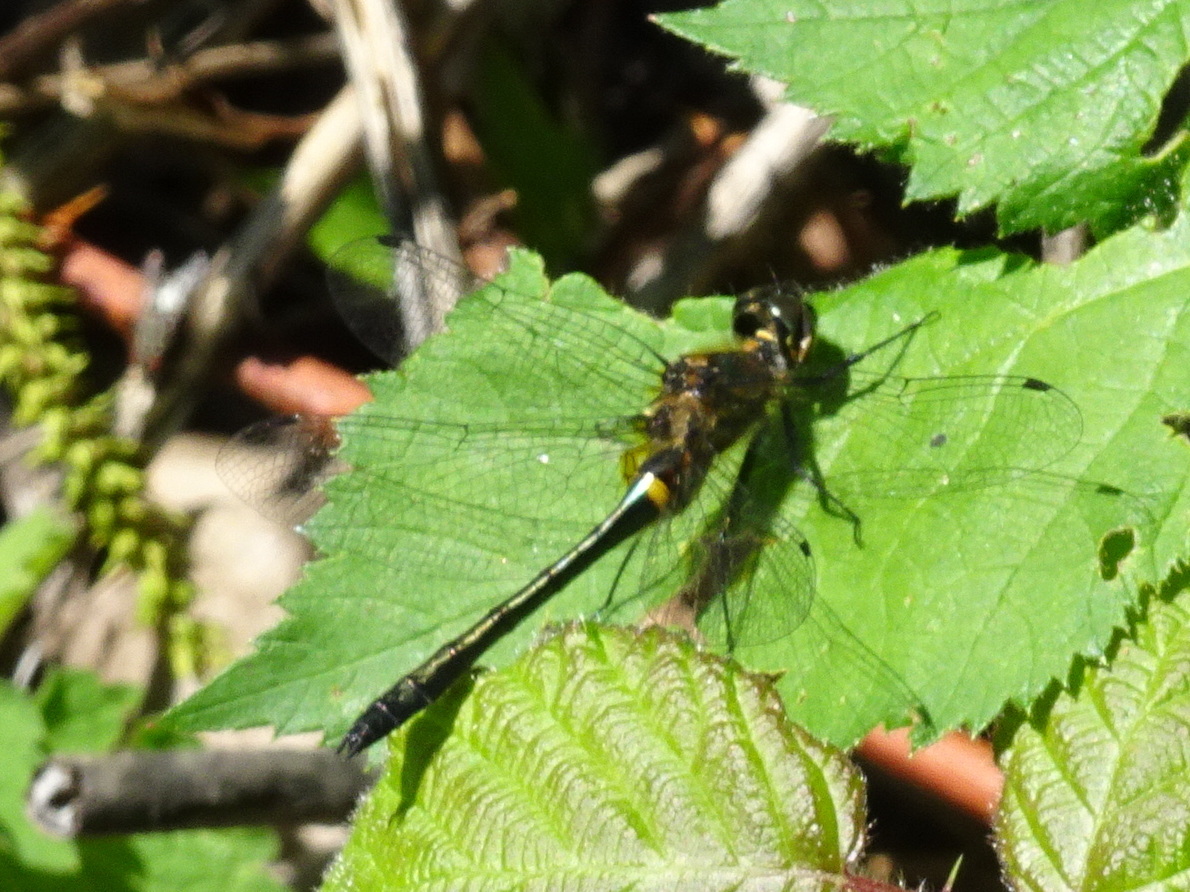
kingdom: Animalia
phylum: Arthropoda
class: Insecta
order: Odonata
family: Corduliidae
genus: Dorocordulia
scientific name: Dorocordulia libera
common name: Racket-tailed emerald
